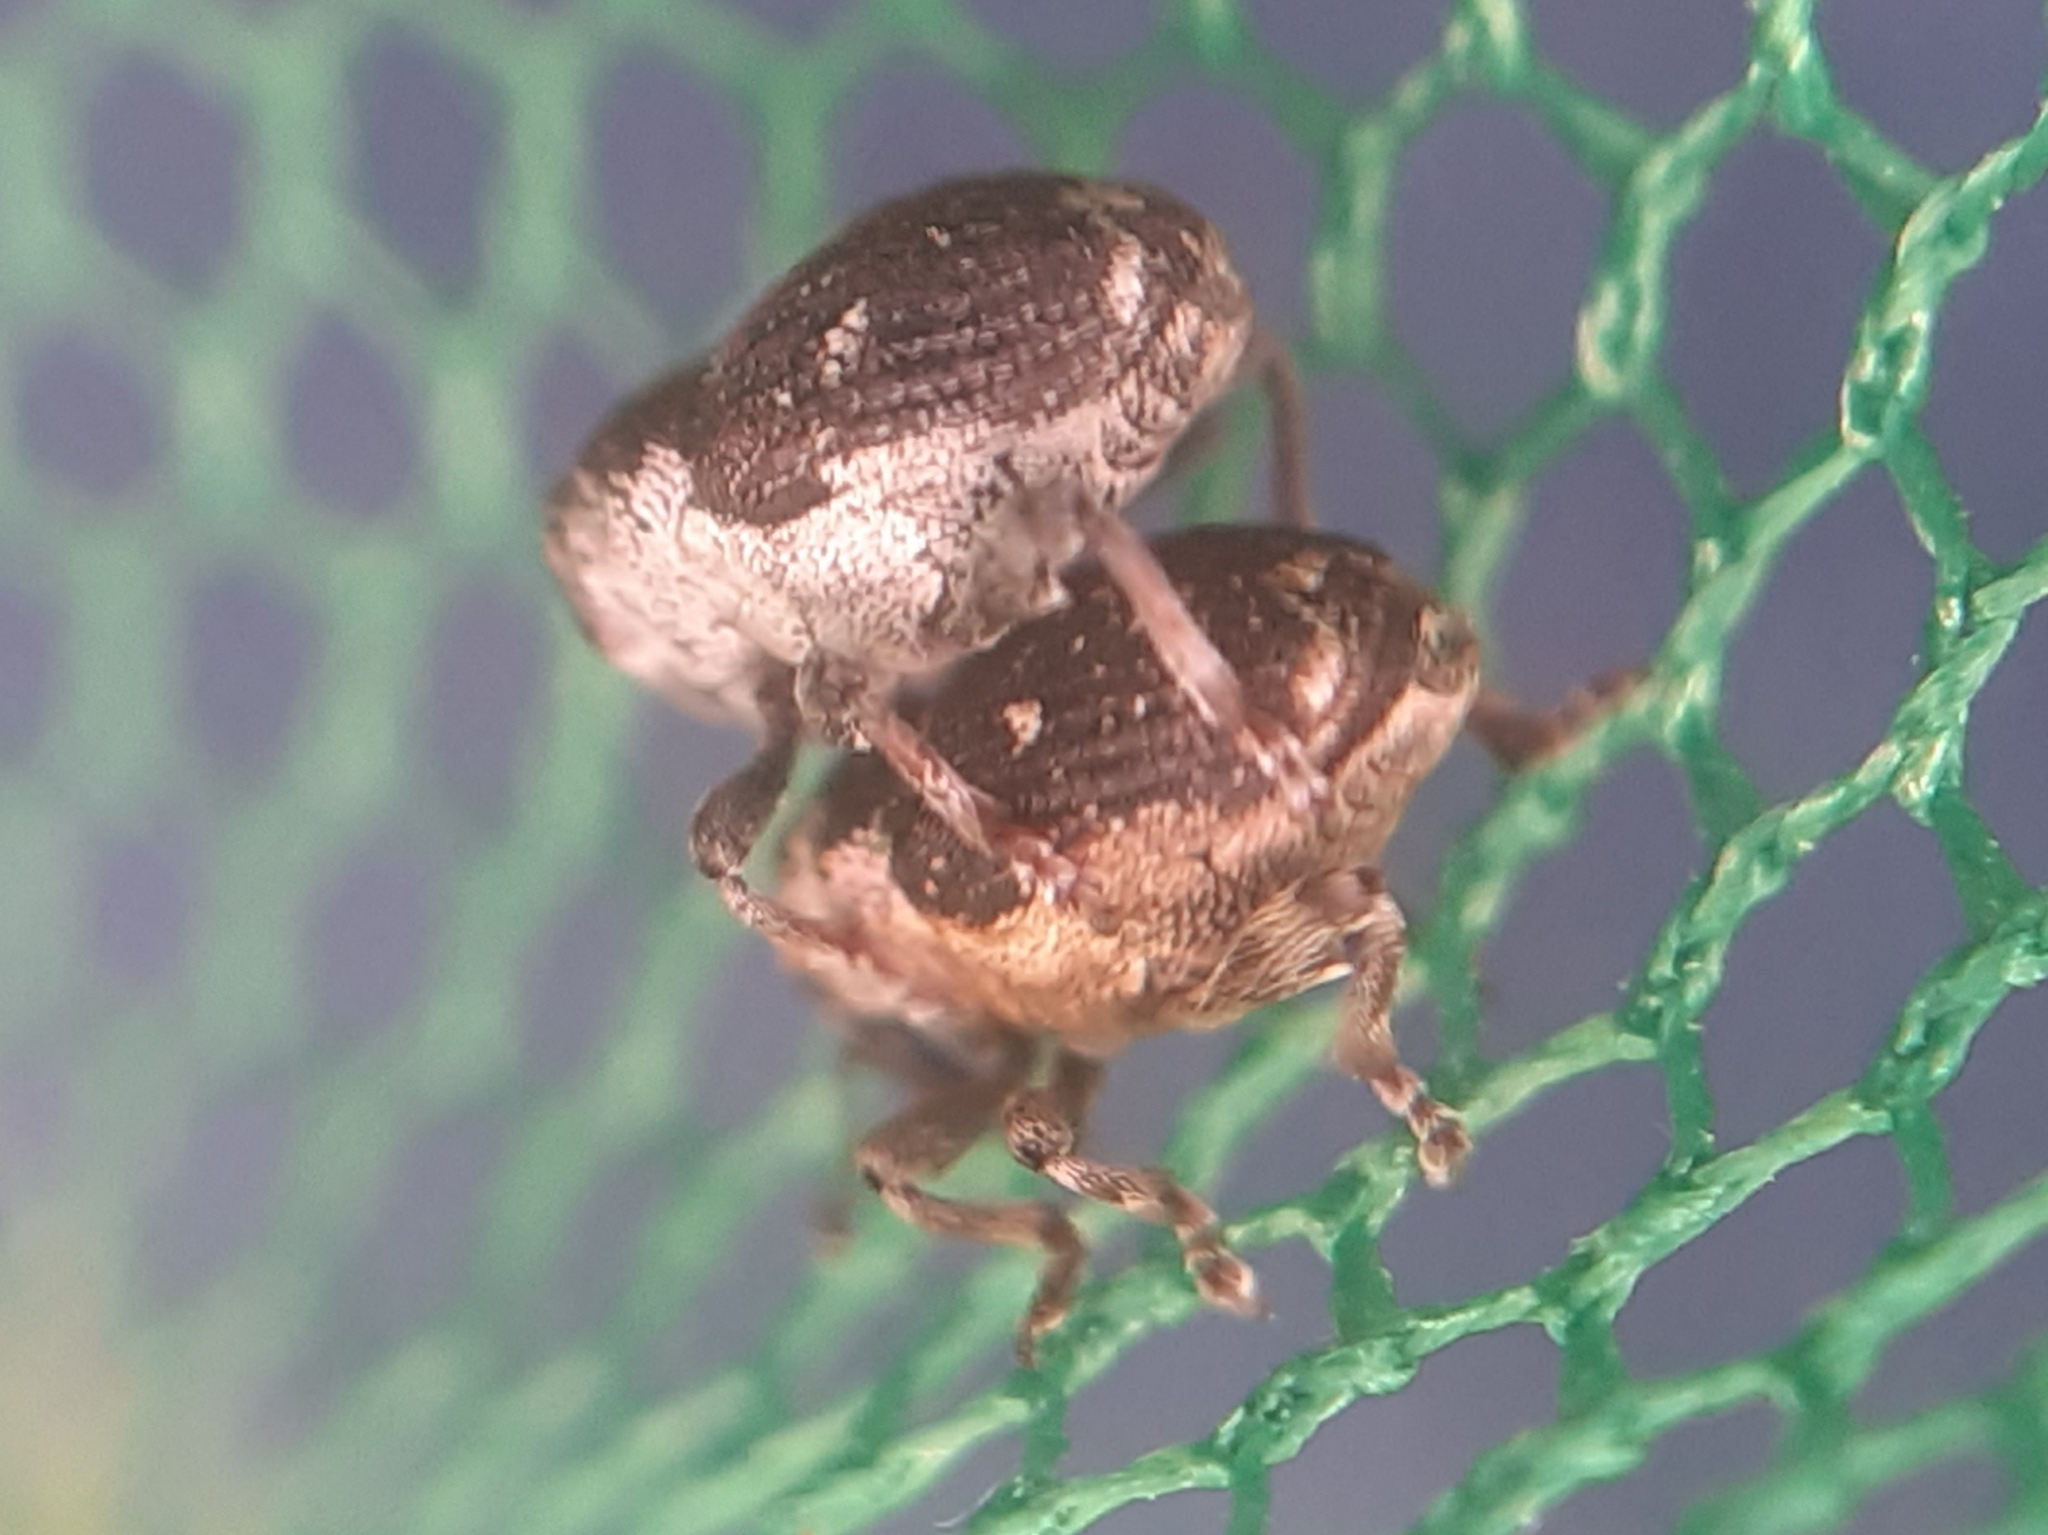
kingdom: Animalia
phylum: Arthropoda
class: Insecta
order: Coleoptera
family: Curculionidae
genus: Nedyus
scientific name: Nedyus quadrimaculatus
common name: Small nettle weevil
